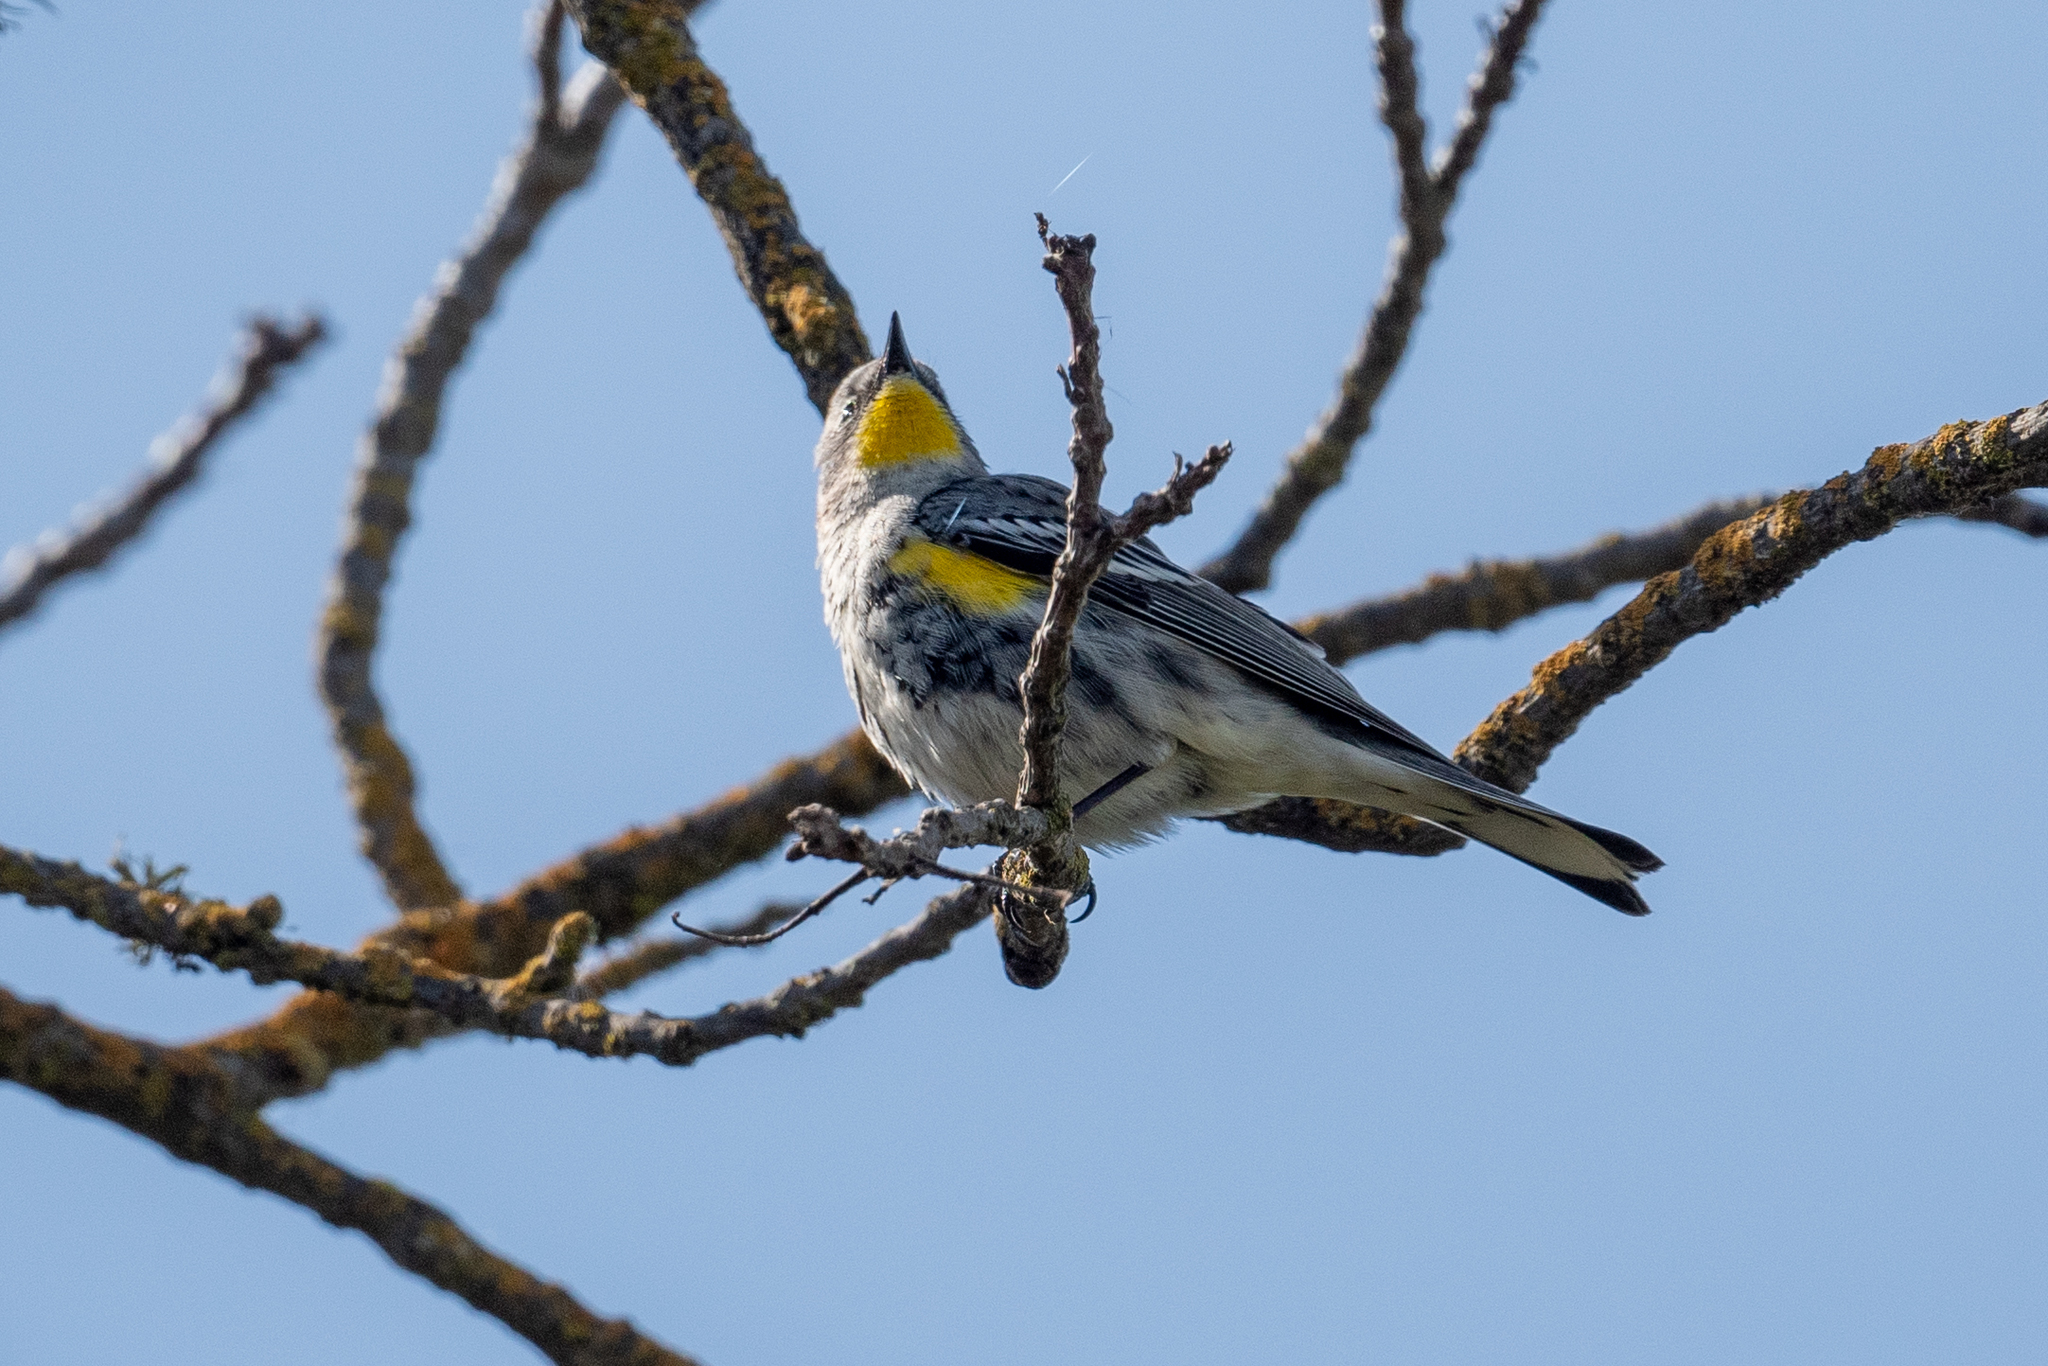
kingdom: Animalia
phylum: Chordata
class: Aves
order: Passeriformes
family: Parulidae
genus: Setophaga
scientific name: Setophaga coronata
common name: Myrtle warbler
